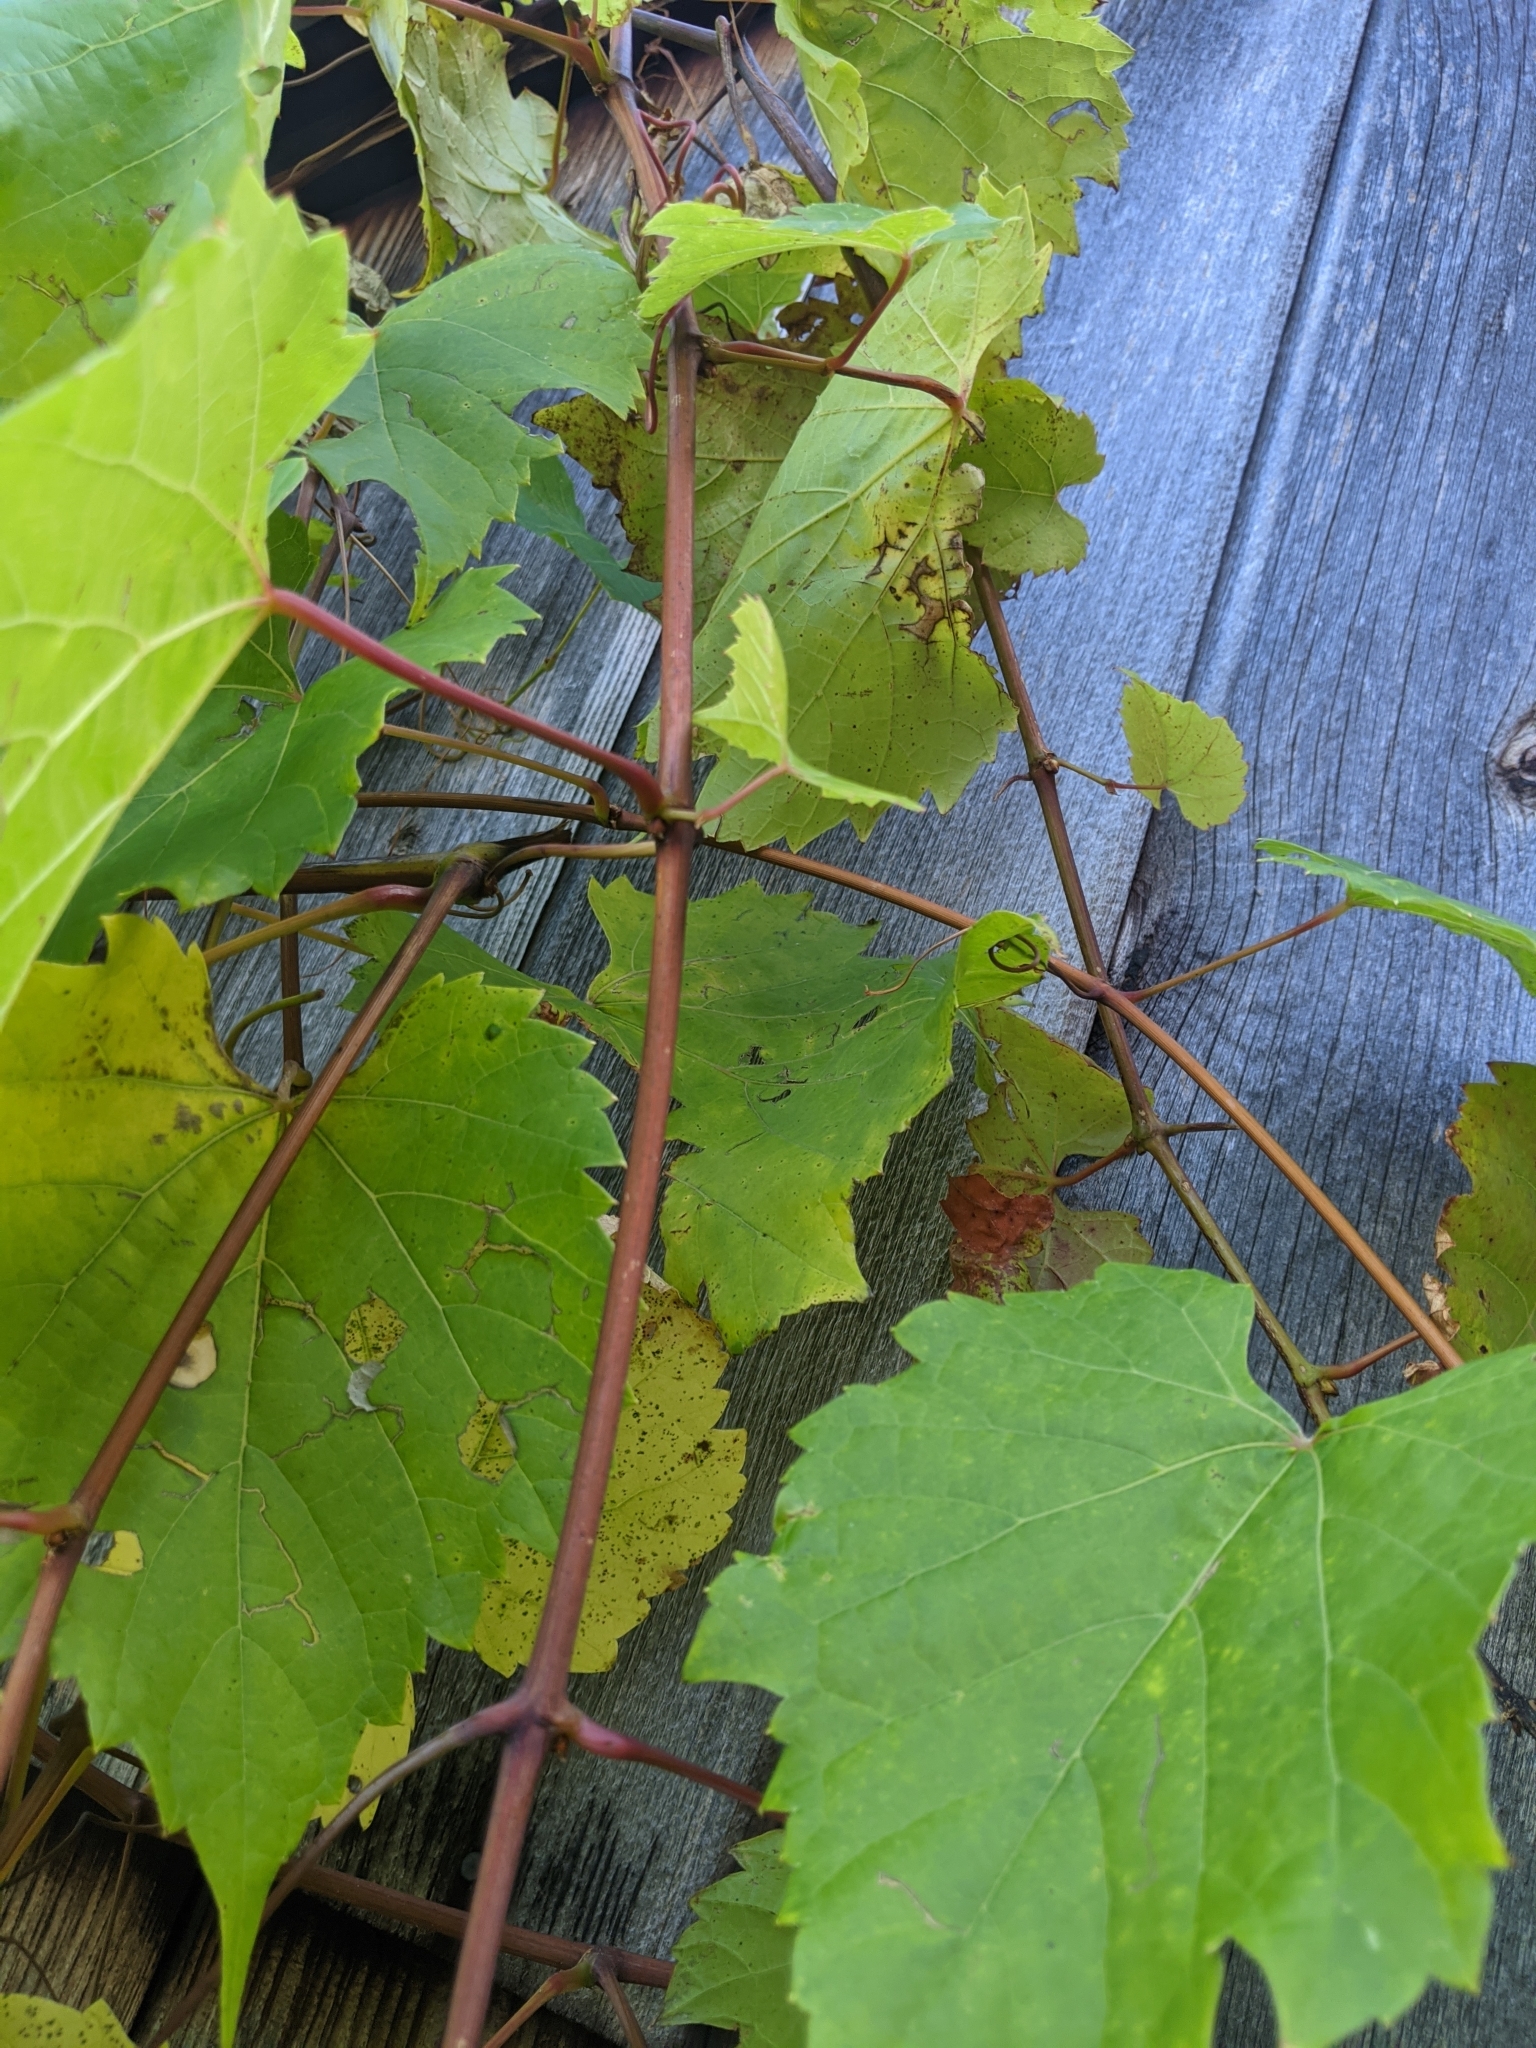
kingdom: Plantae
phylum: Tracheophyta
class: Magnoliopsida
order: Vitales
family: Vitaceae
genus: Vitis
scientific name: Vitis riparia
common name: Frost grape
